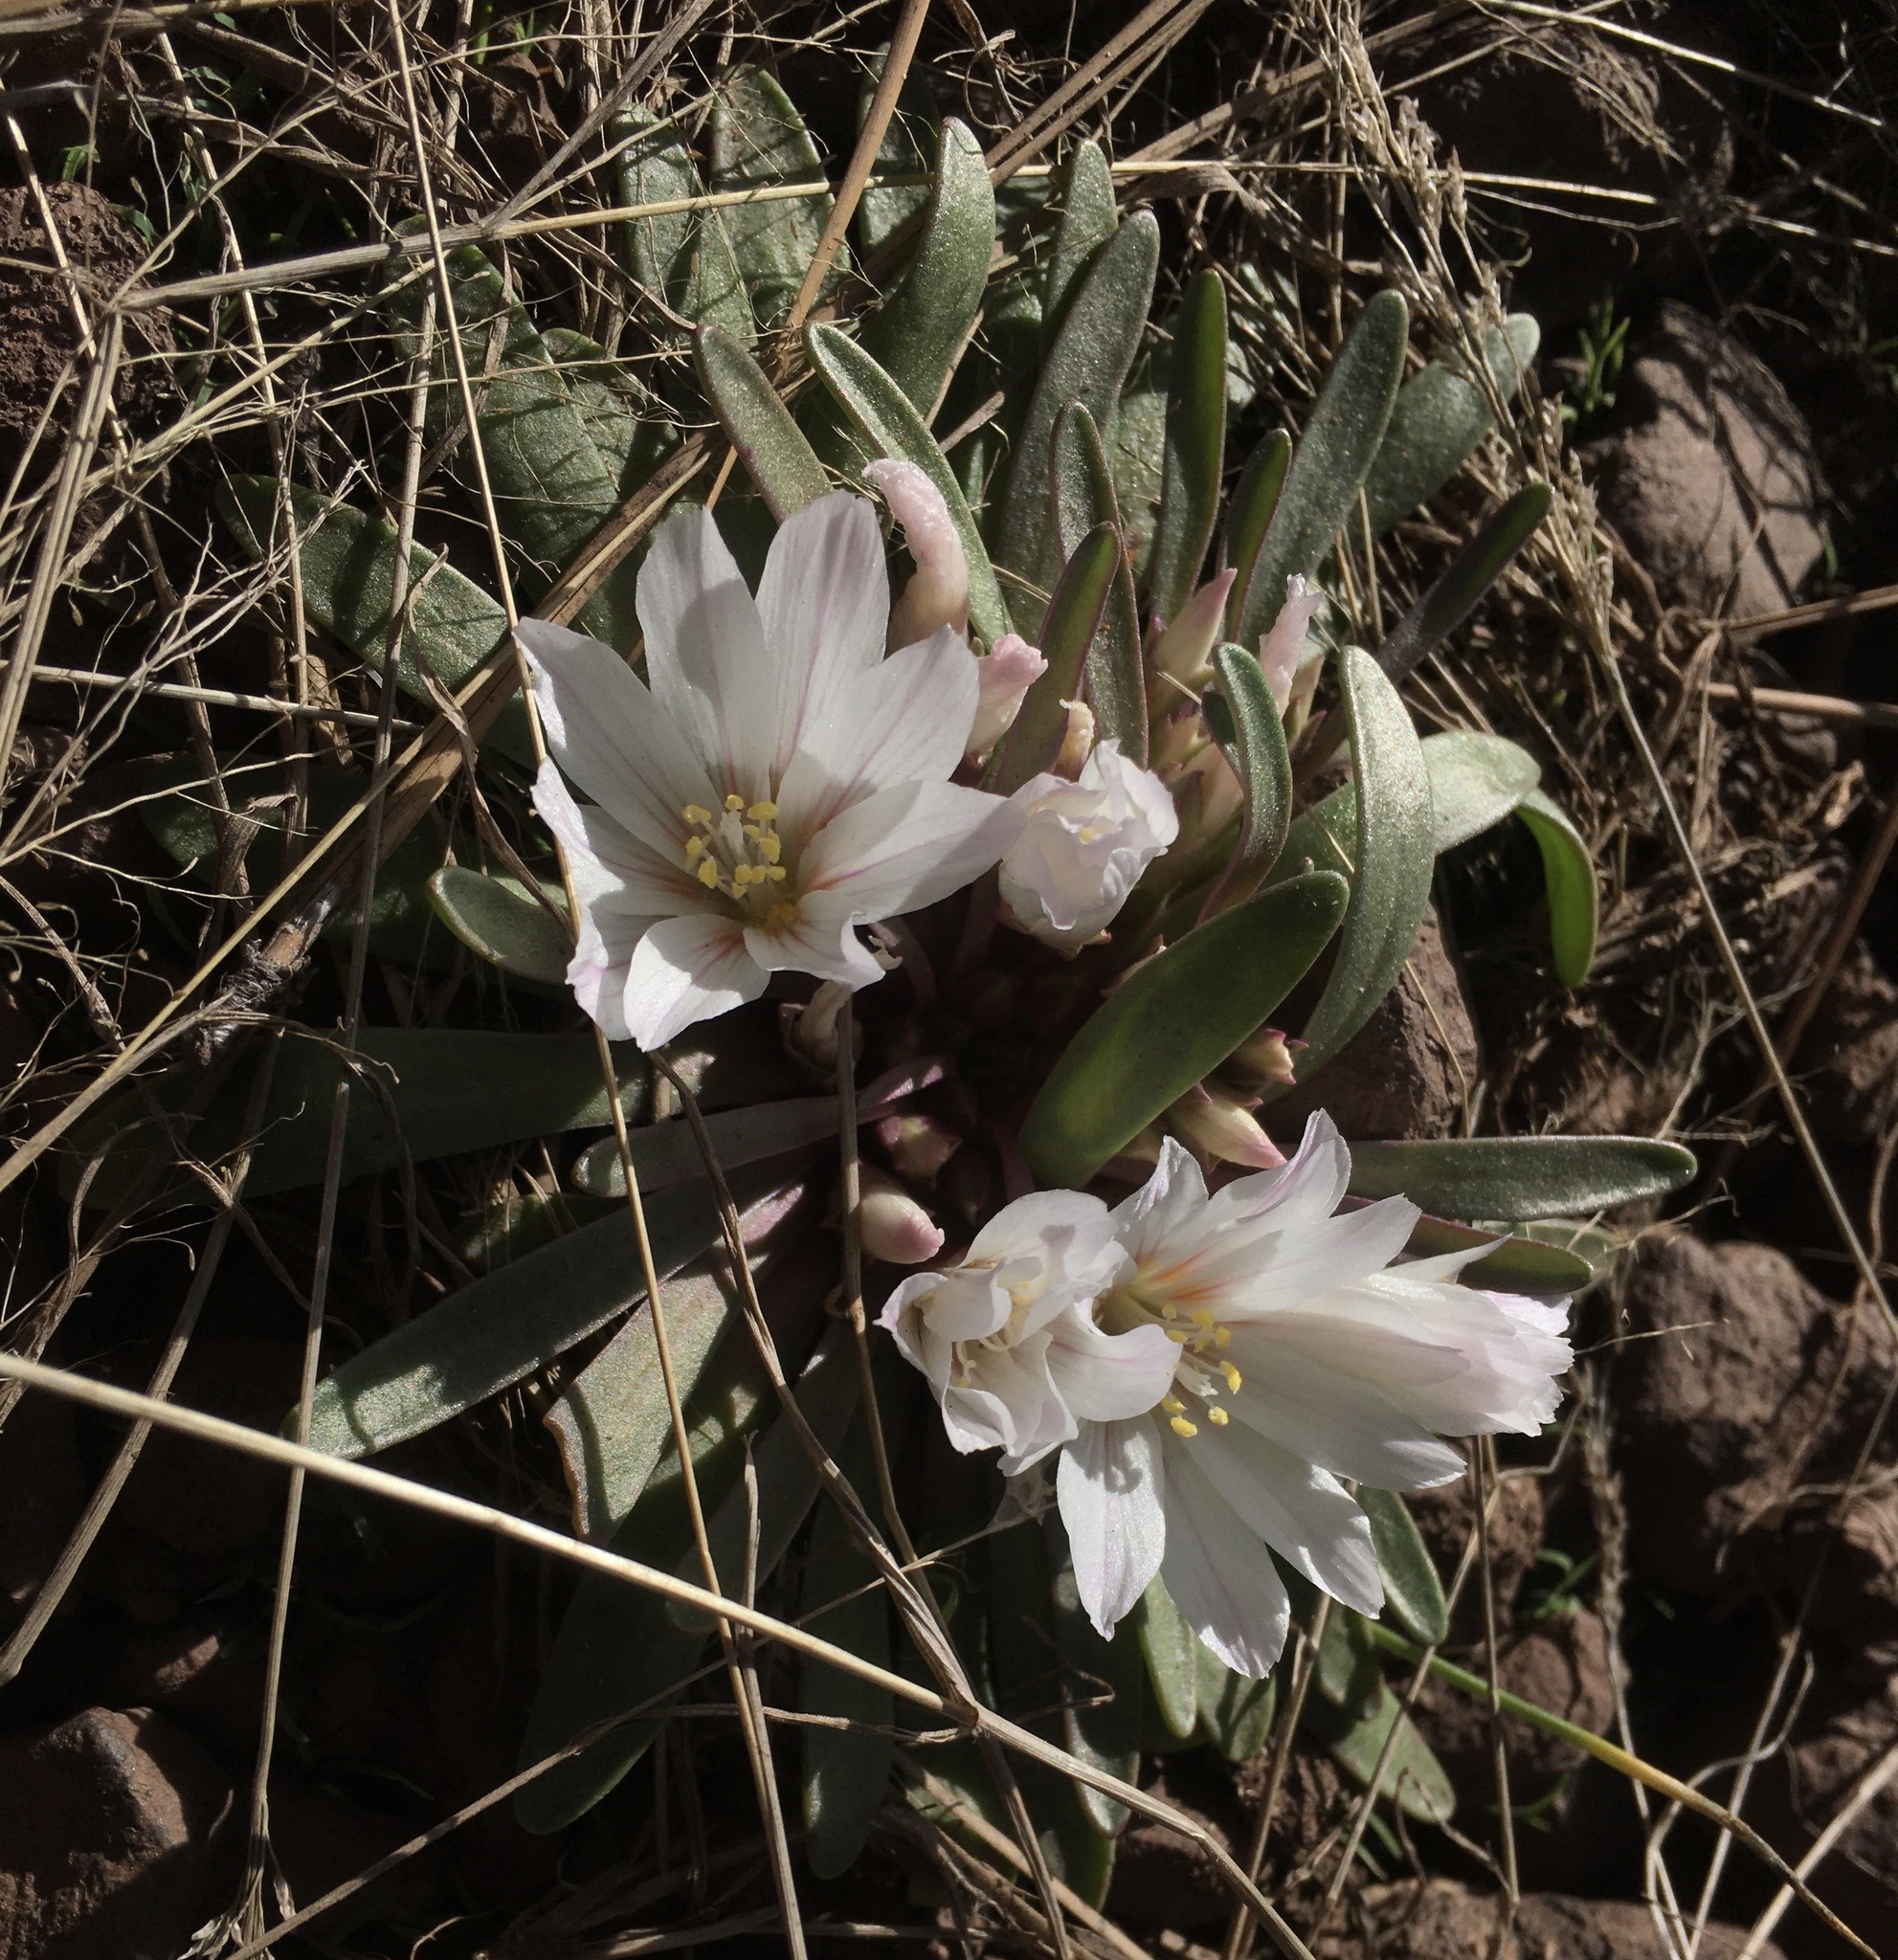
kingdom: Plantae
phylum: Tracheophyta
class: Magnoliopsida
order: Caryophyllales
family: Montiaceae
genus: Lewisia
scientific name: Lewisia brachycalyx
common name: Short-sepal lewisia
